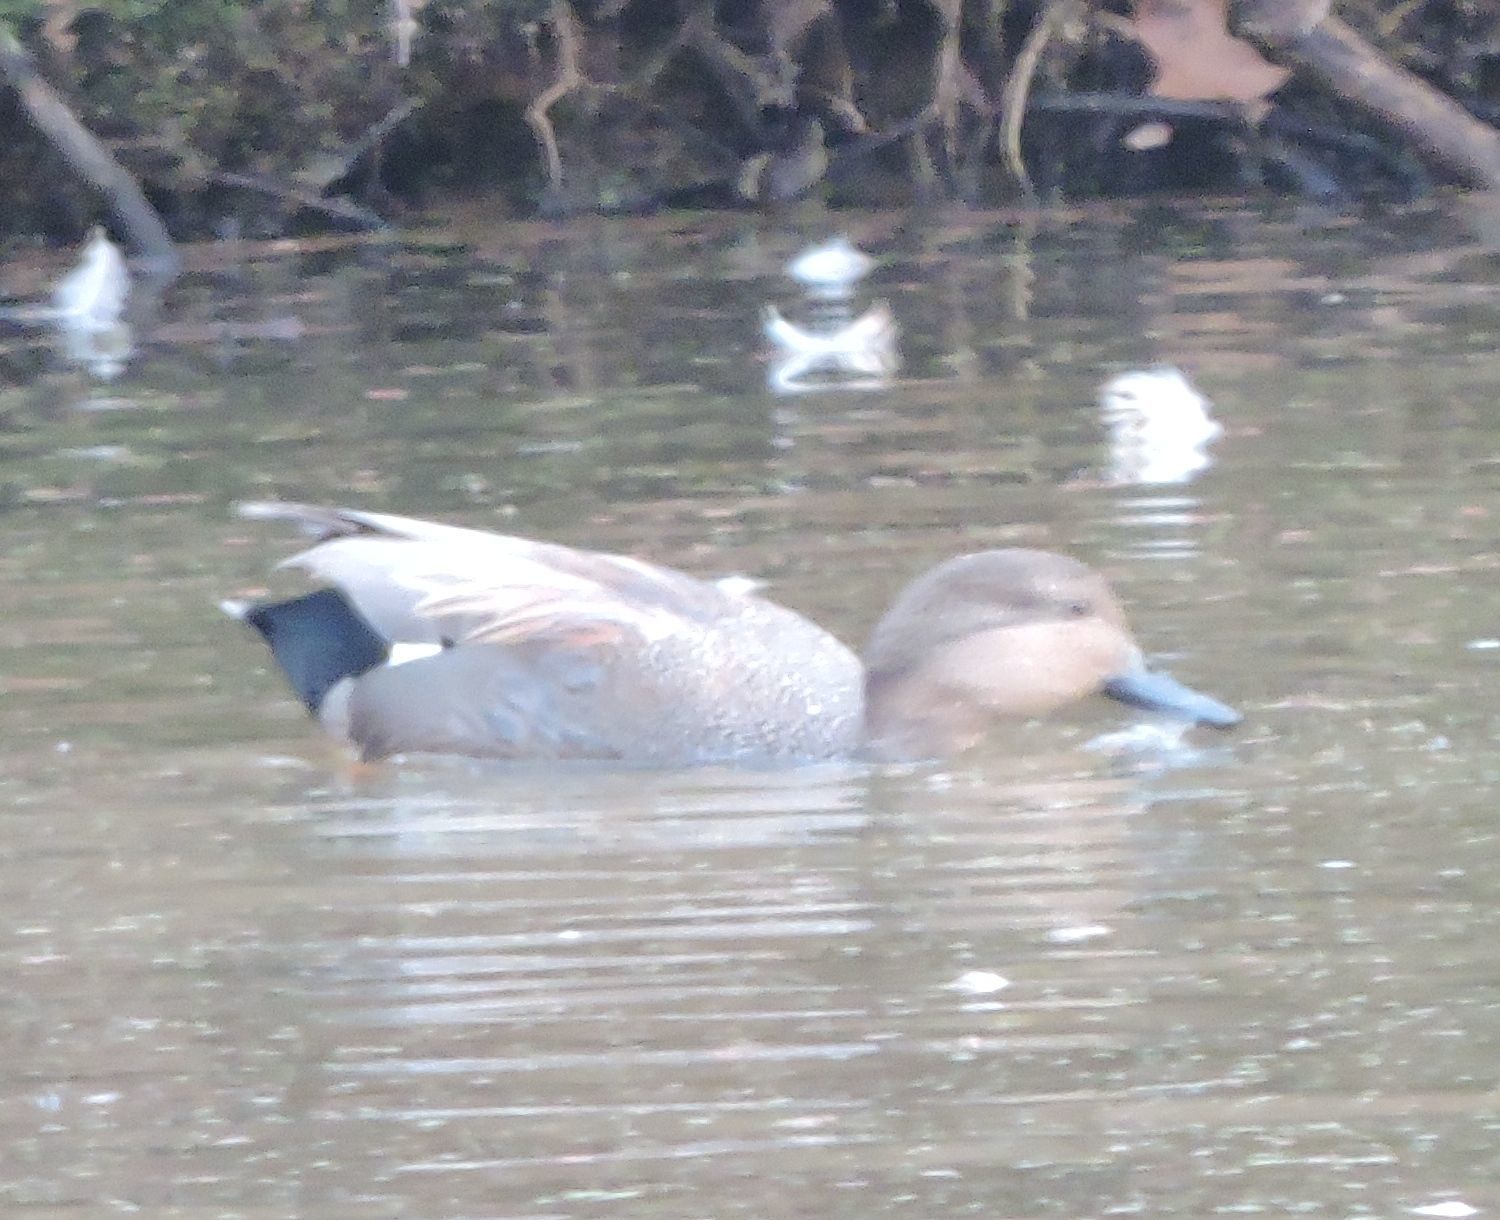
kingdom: Animalia
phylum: Chordata
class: Aves
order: Anseriformes
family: Anatidae
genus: Mareca
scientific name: Mareca strepera
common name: Gadwall
